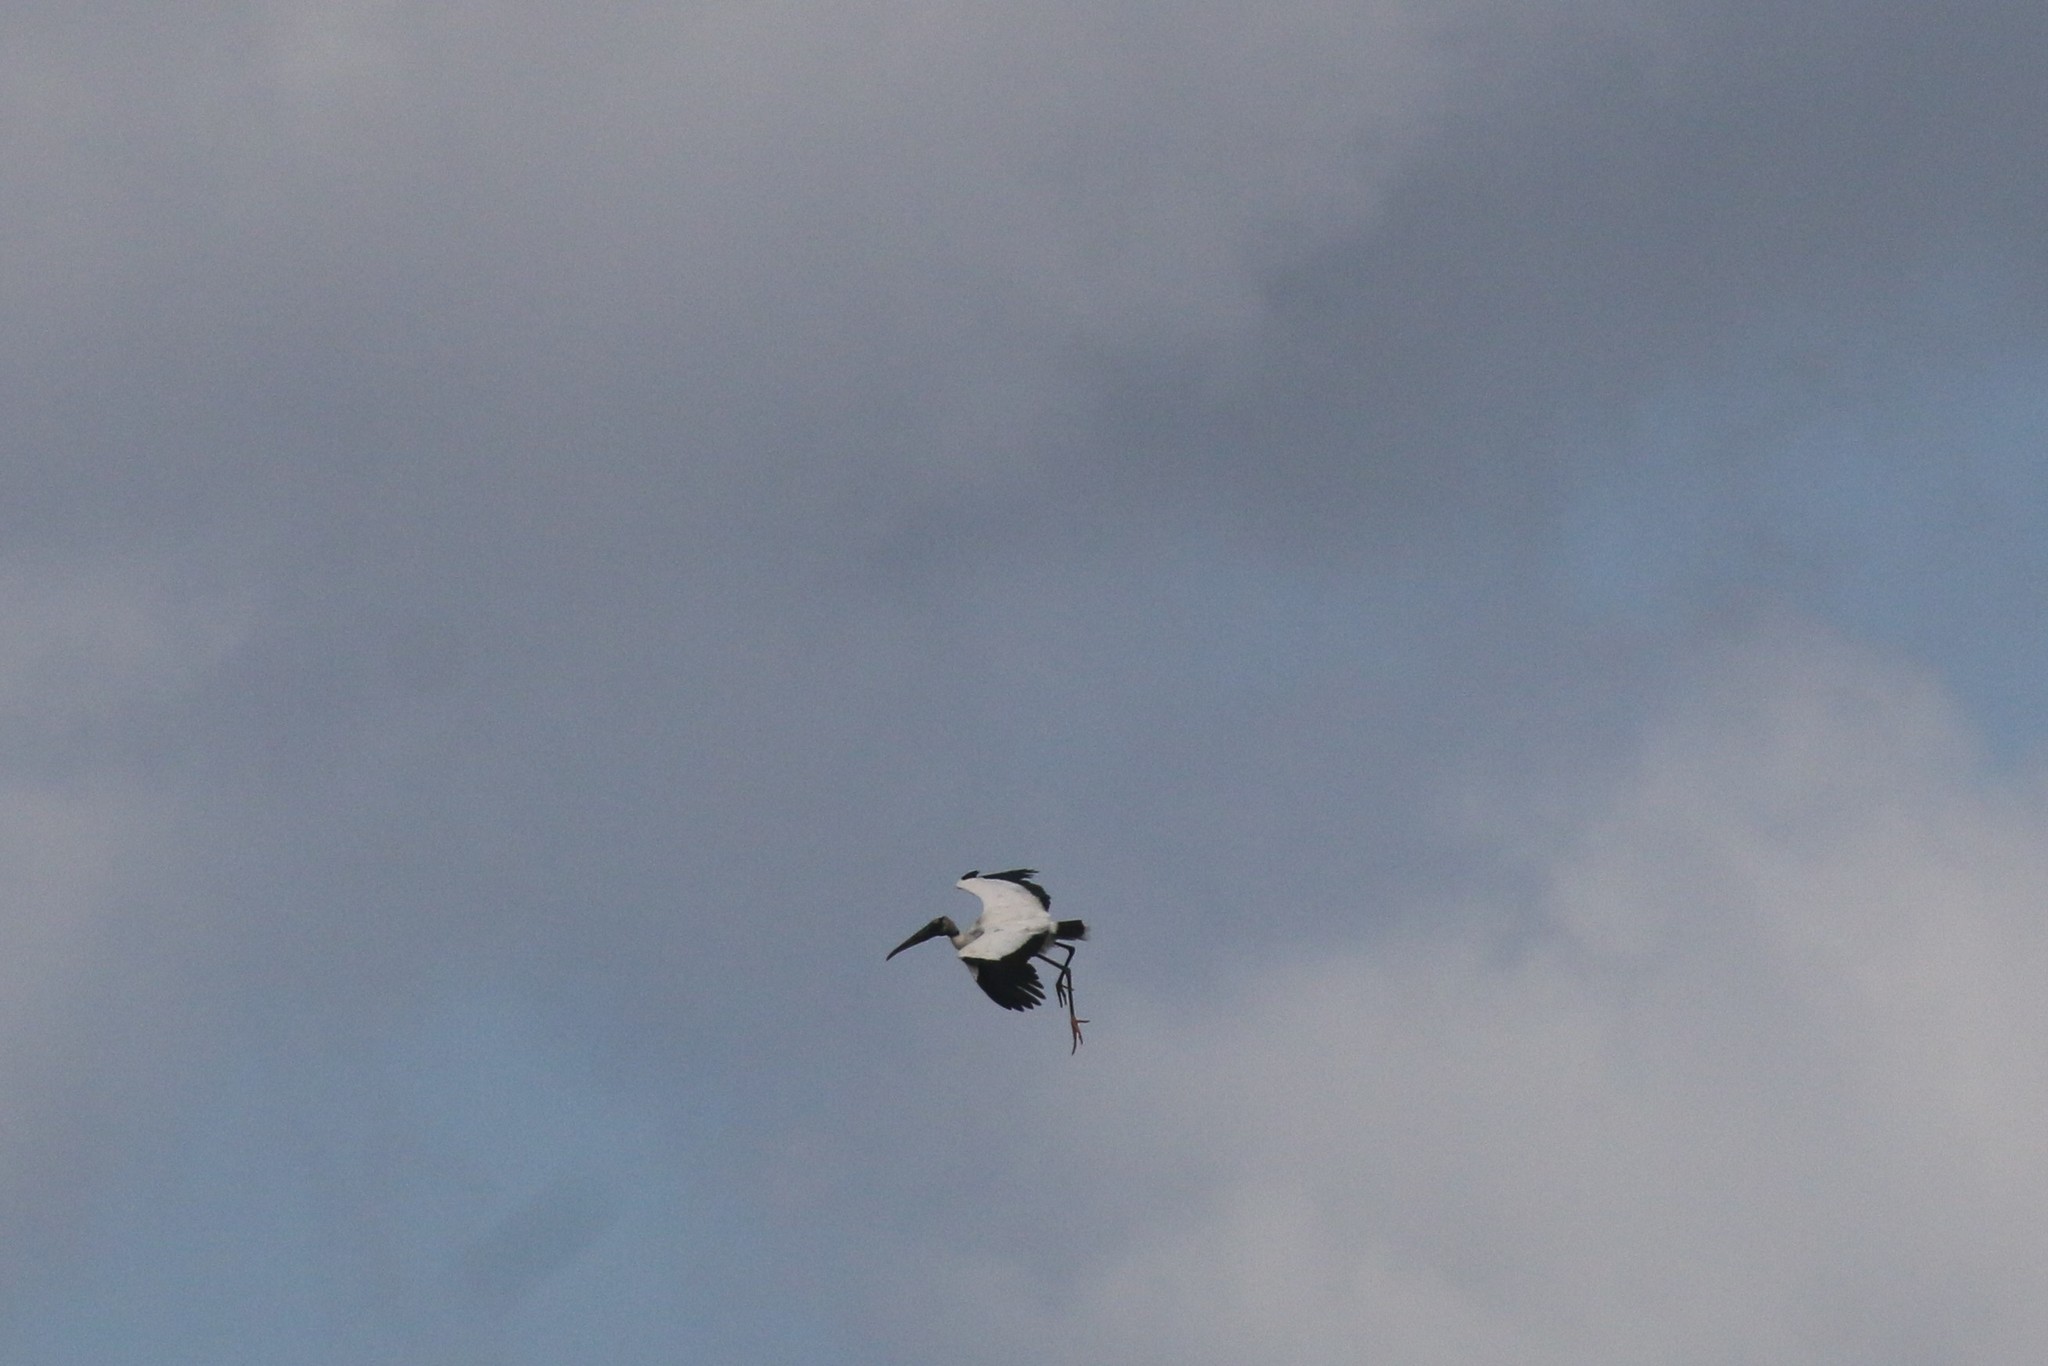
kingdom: Animalia
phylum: Chordata
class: Aves
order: Ciconiiformes
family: Ciconiidae
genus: Mycteria
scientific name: Mycteria americana
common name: Wood stork
